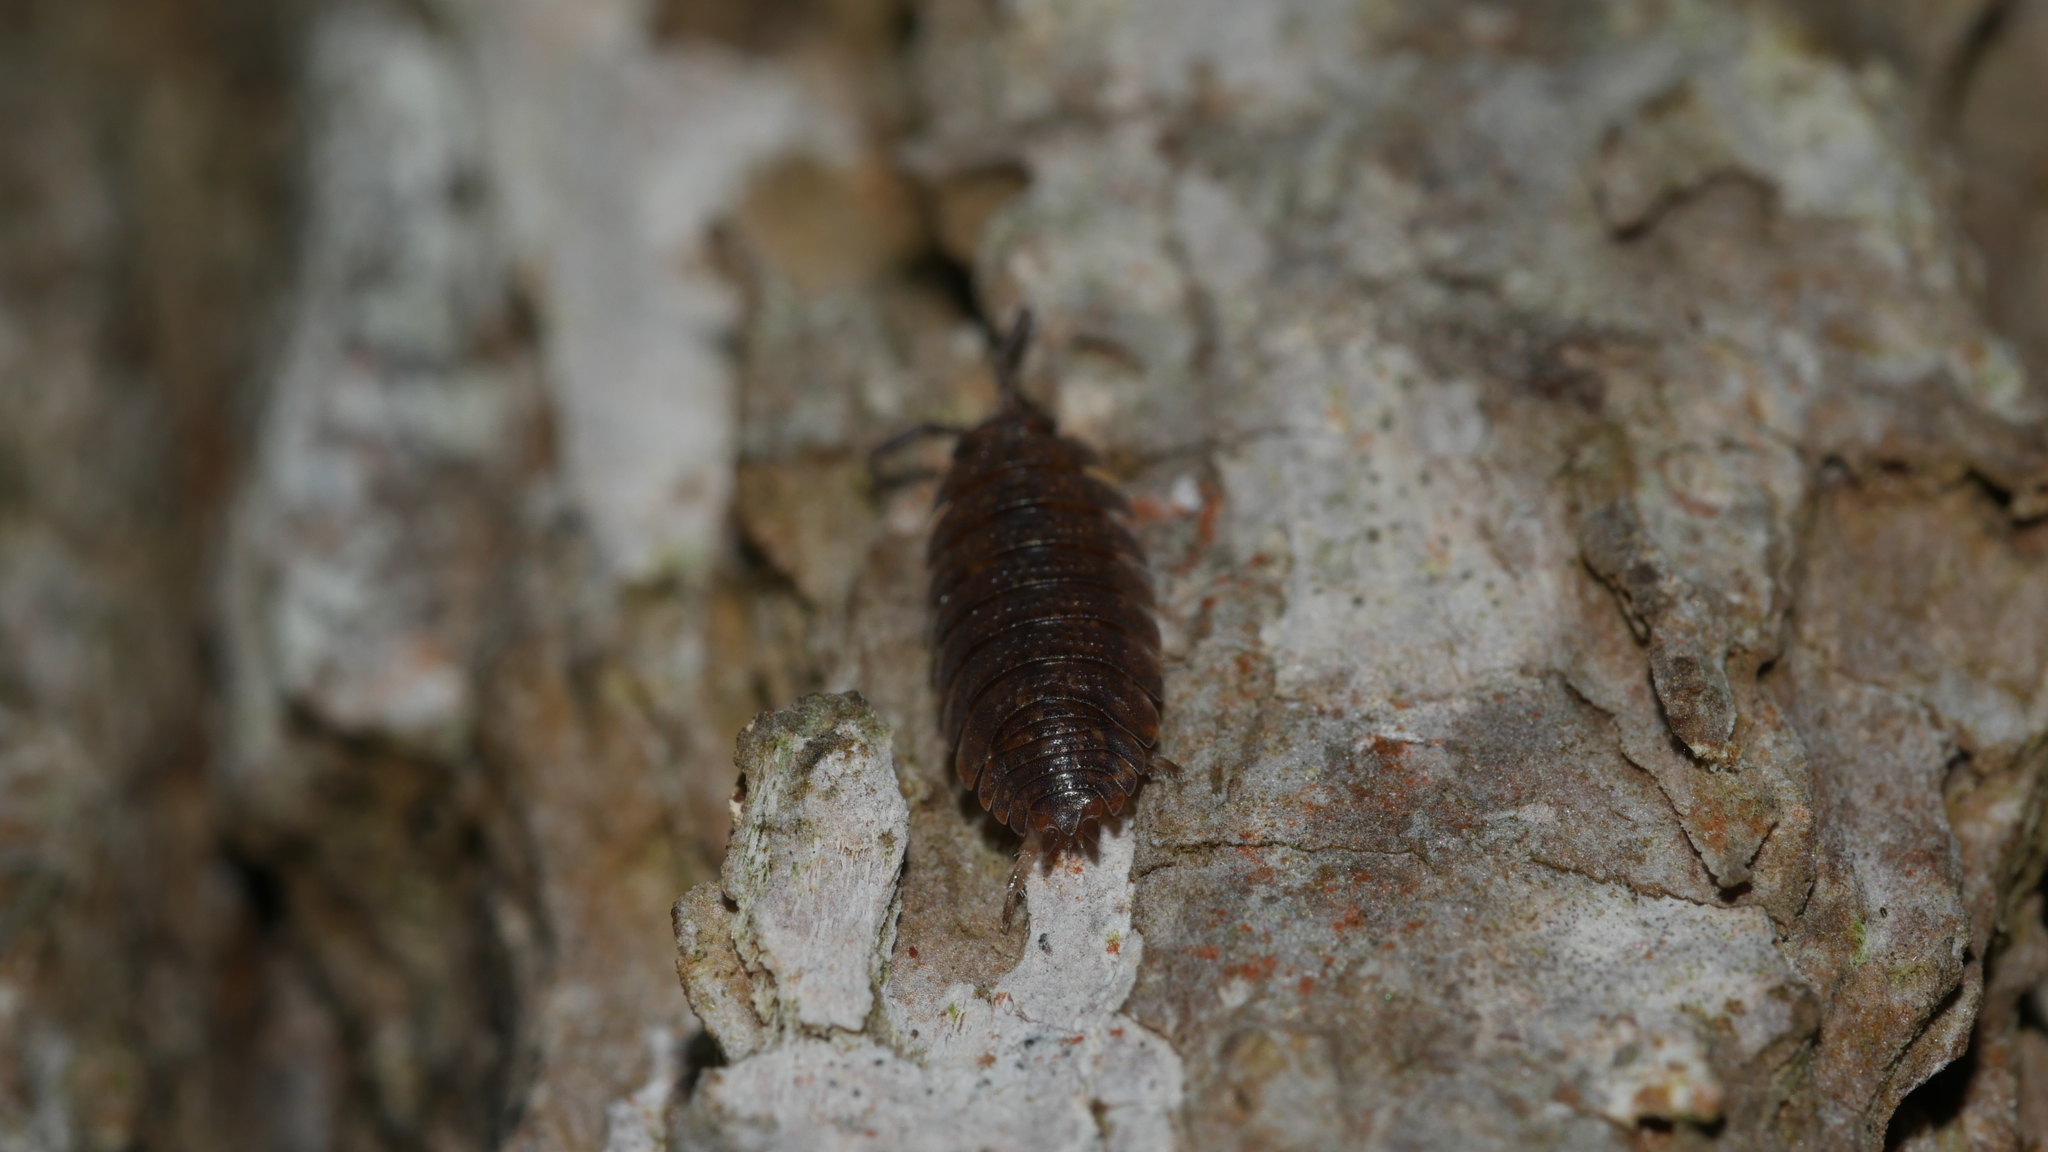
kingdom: Animalia
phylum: Arthropoda
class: Malacostraca
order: Isopoda
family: Porcellionidae
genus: Porcellio
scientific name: Porcellio scaber
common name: Common rough woodlouse
